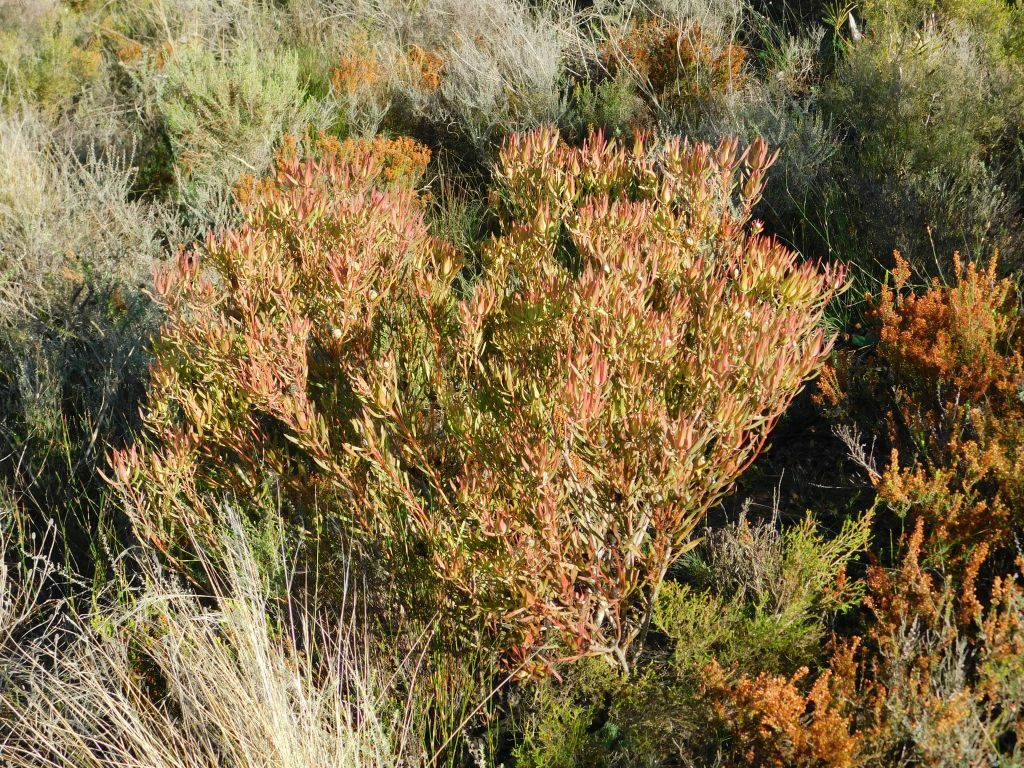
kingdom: Plantae
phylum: Tracheophyta
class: Magnoliopsida
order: Proteales
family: Proteaceae
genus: Leucadendron
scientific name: Leucadendron salignum
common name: Common sunshine conebush
